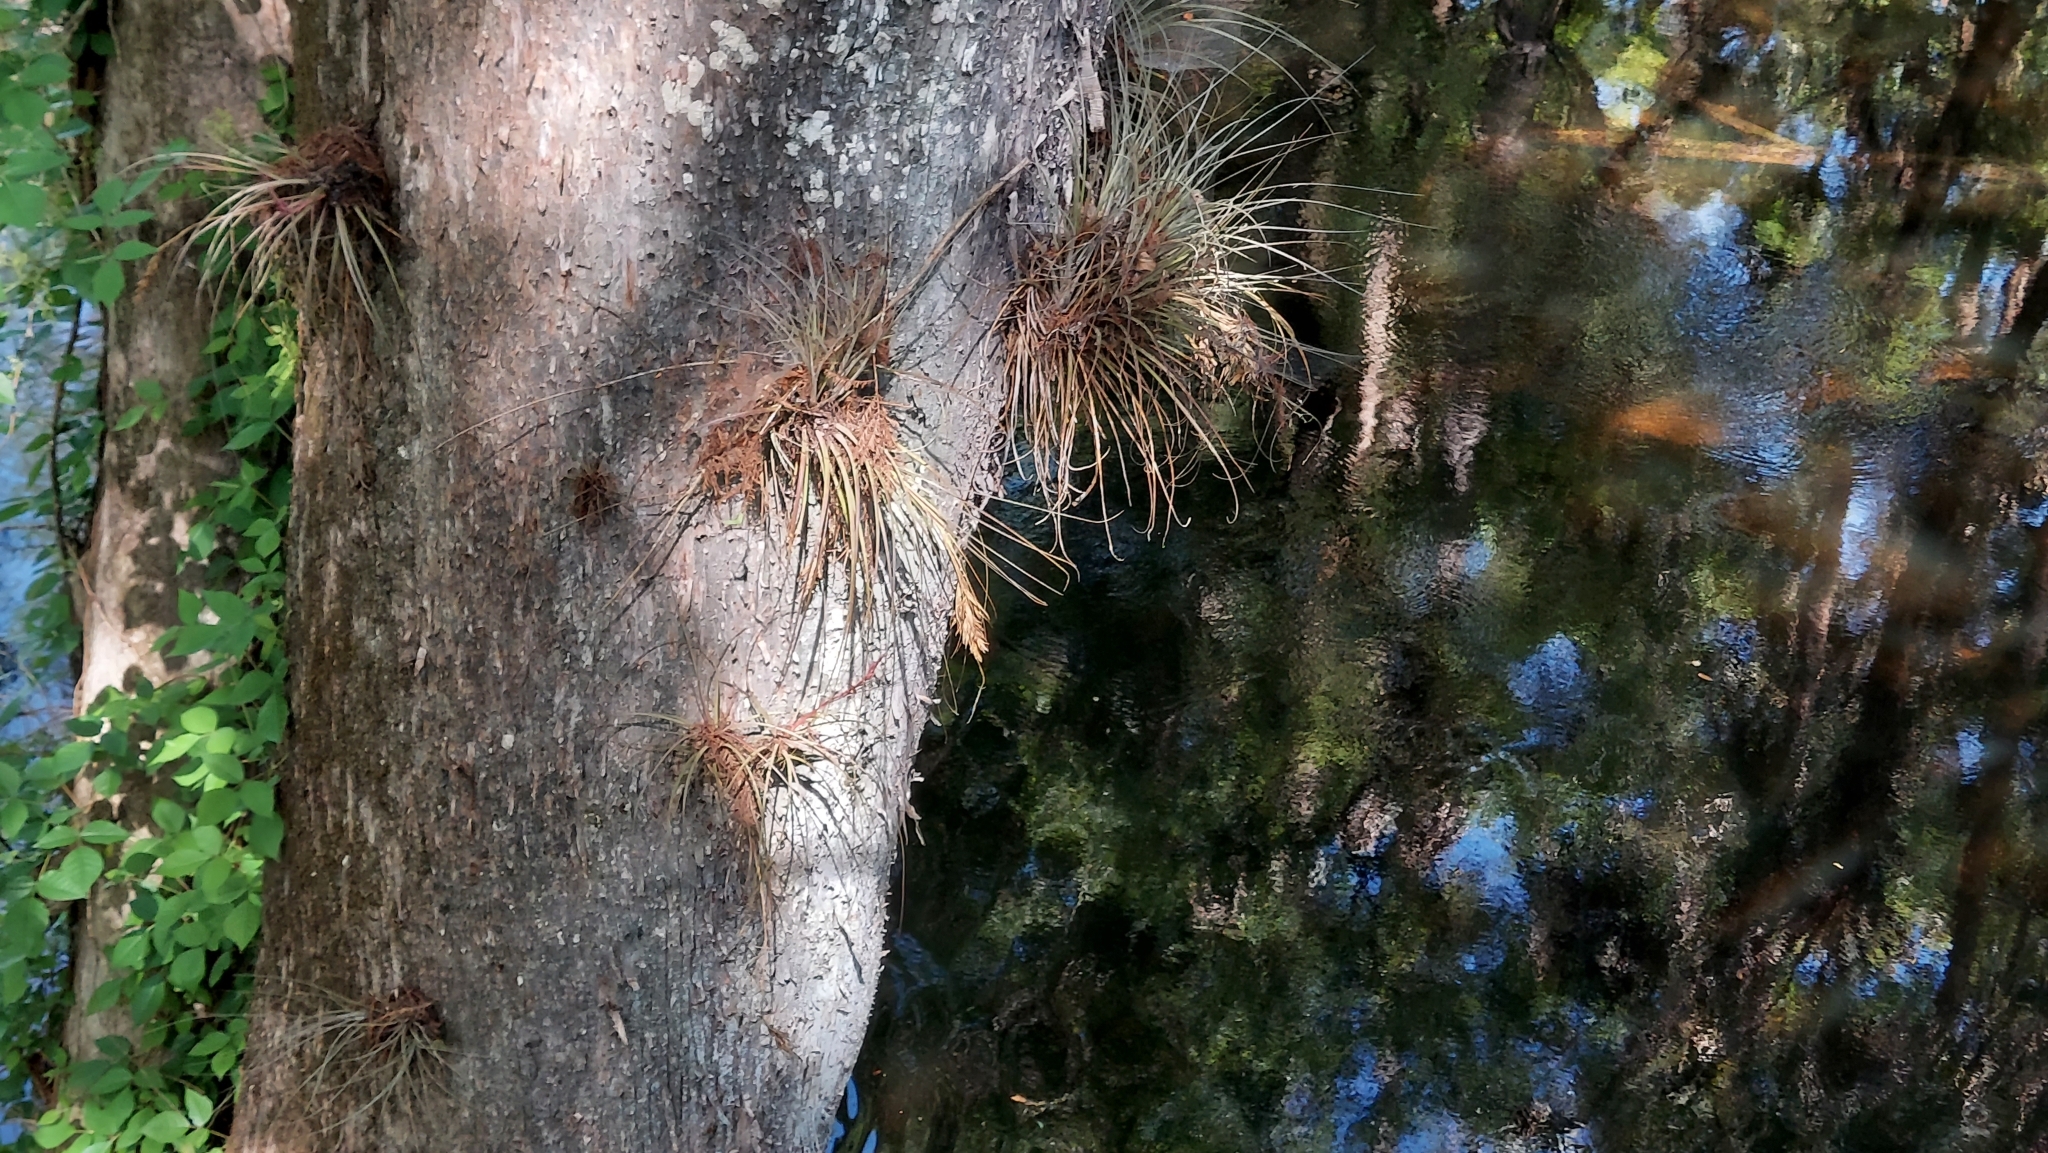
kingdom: Plantae
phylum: Tracheophyta
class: Liliopsida
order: Poales
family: Bromeliaceae
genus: Tillandsia
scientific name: Tillandsia fasciculata
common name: Giant airplant
